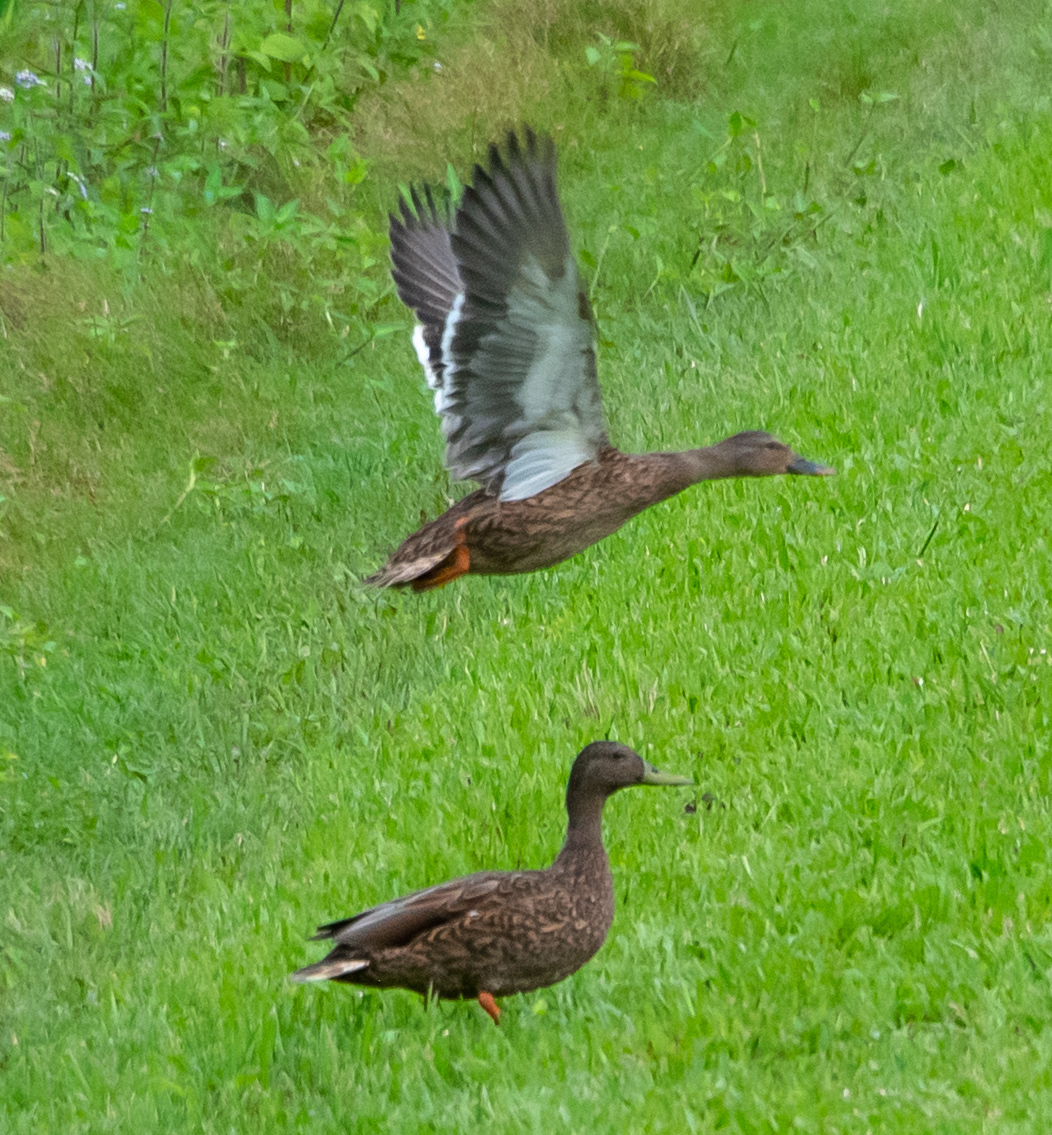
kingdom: Animalia
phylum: Chordata
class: Aves
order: Anseriformes
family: Anatidae
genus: Anas
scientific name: Anas wyvilliana
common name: Hawaiian duck
